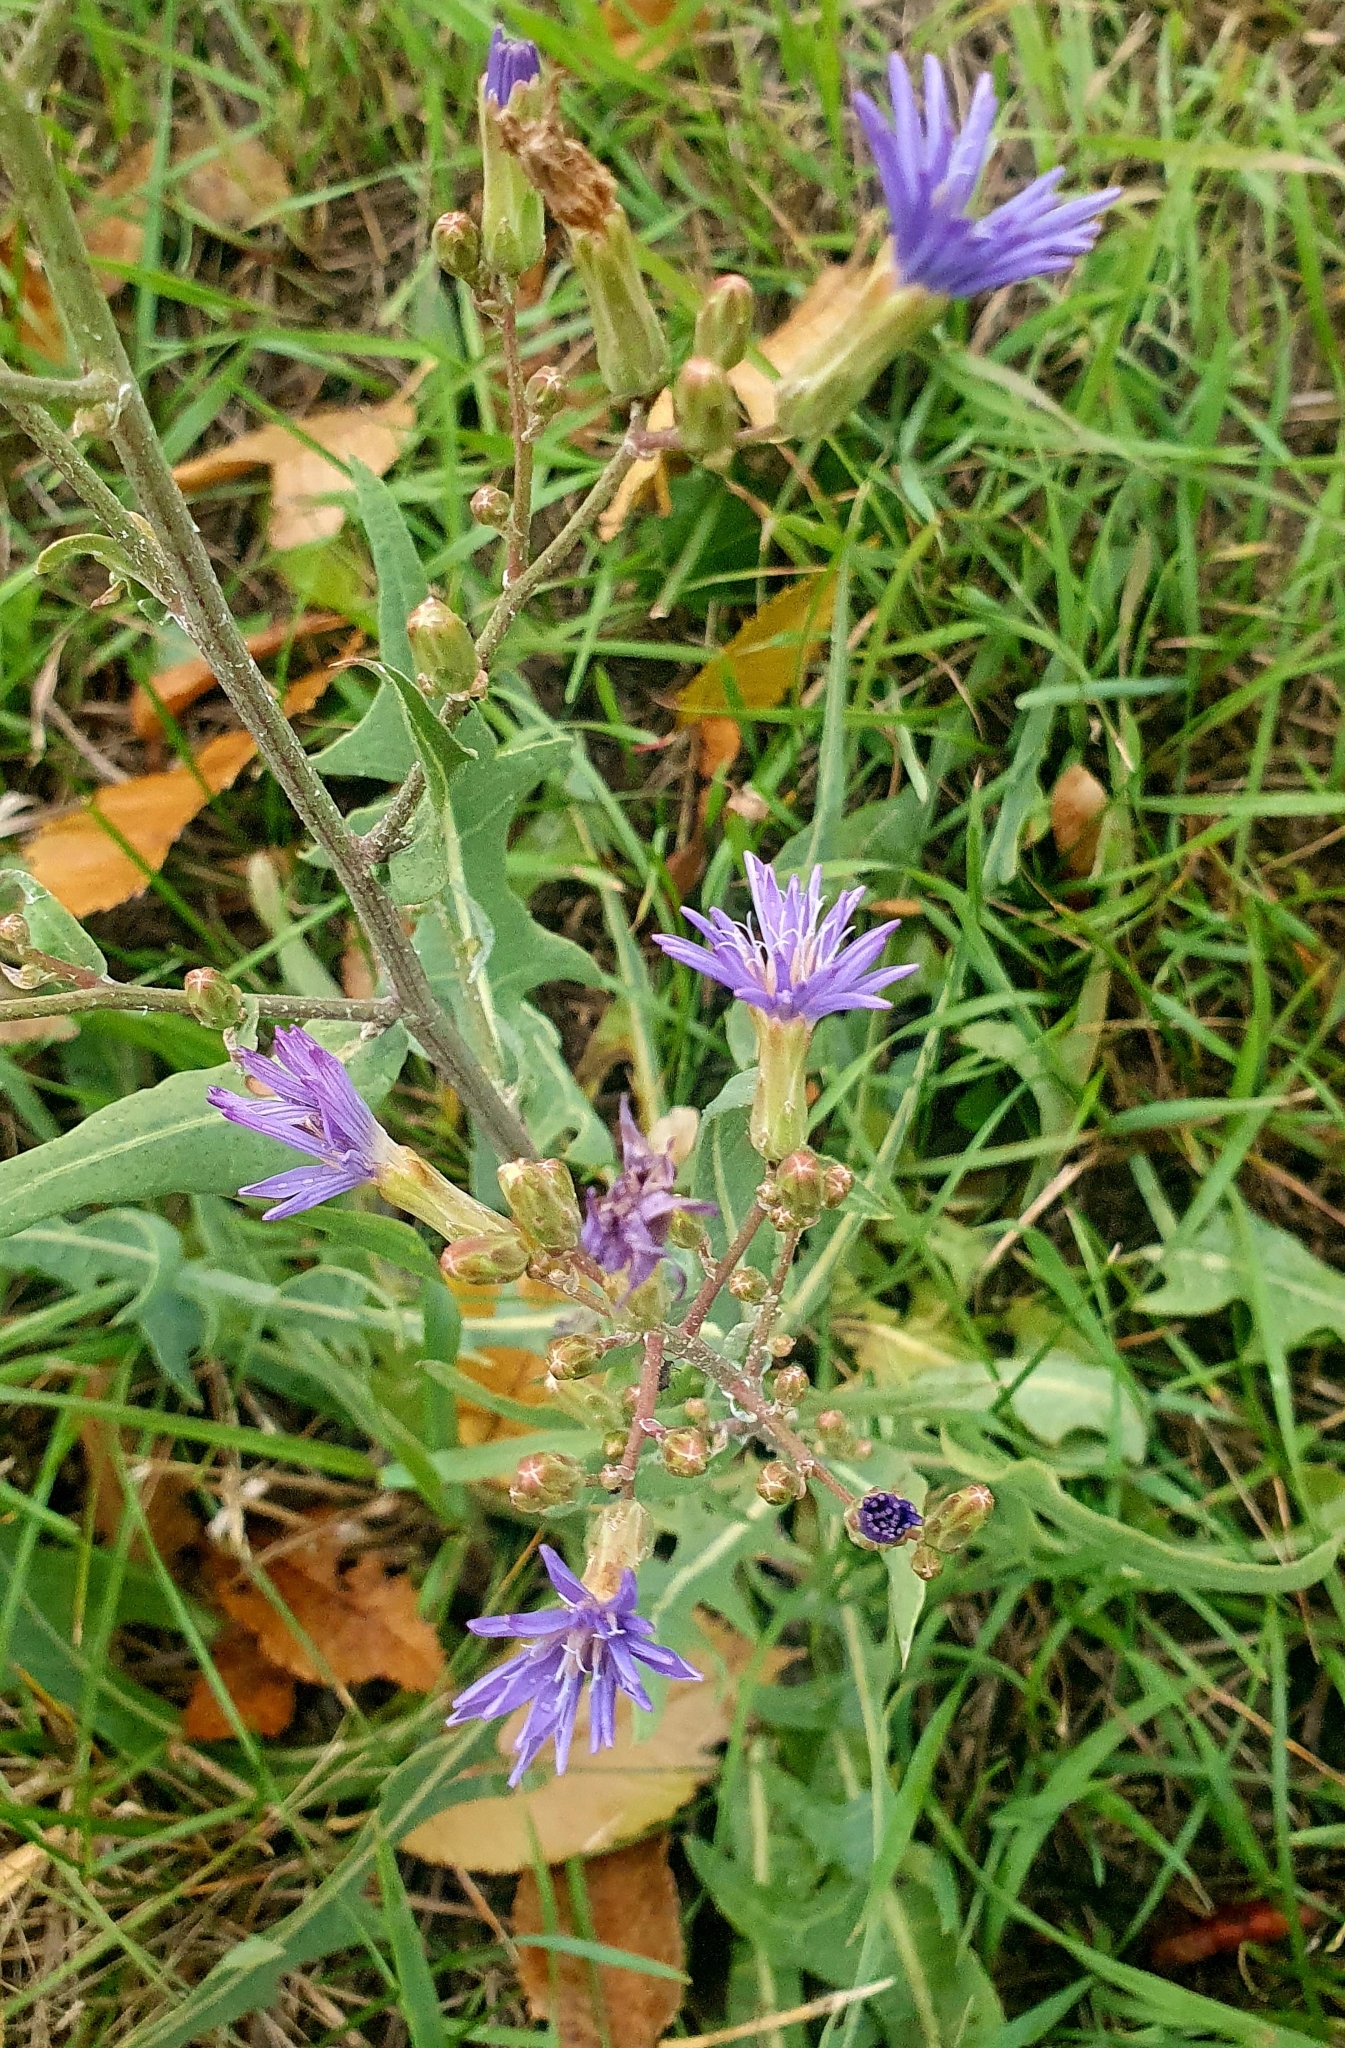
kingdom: Plantae
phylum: Tracheophyta
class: Magnoliopsida
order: Asterales
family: Asteraceae
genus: Lactuca
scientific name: Lactuca tatarica
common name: Blue lettuce
